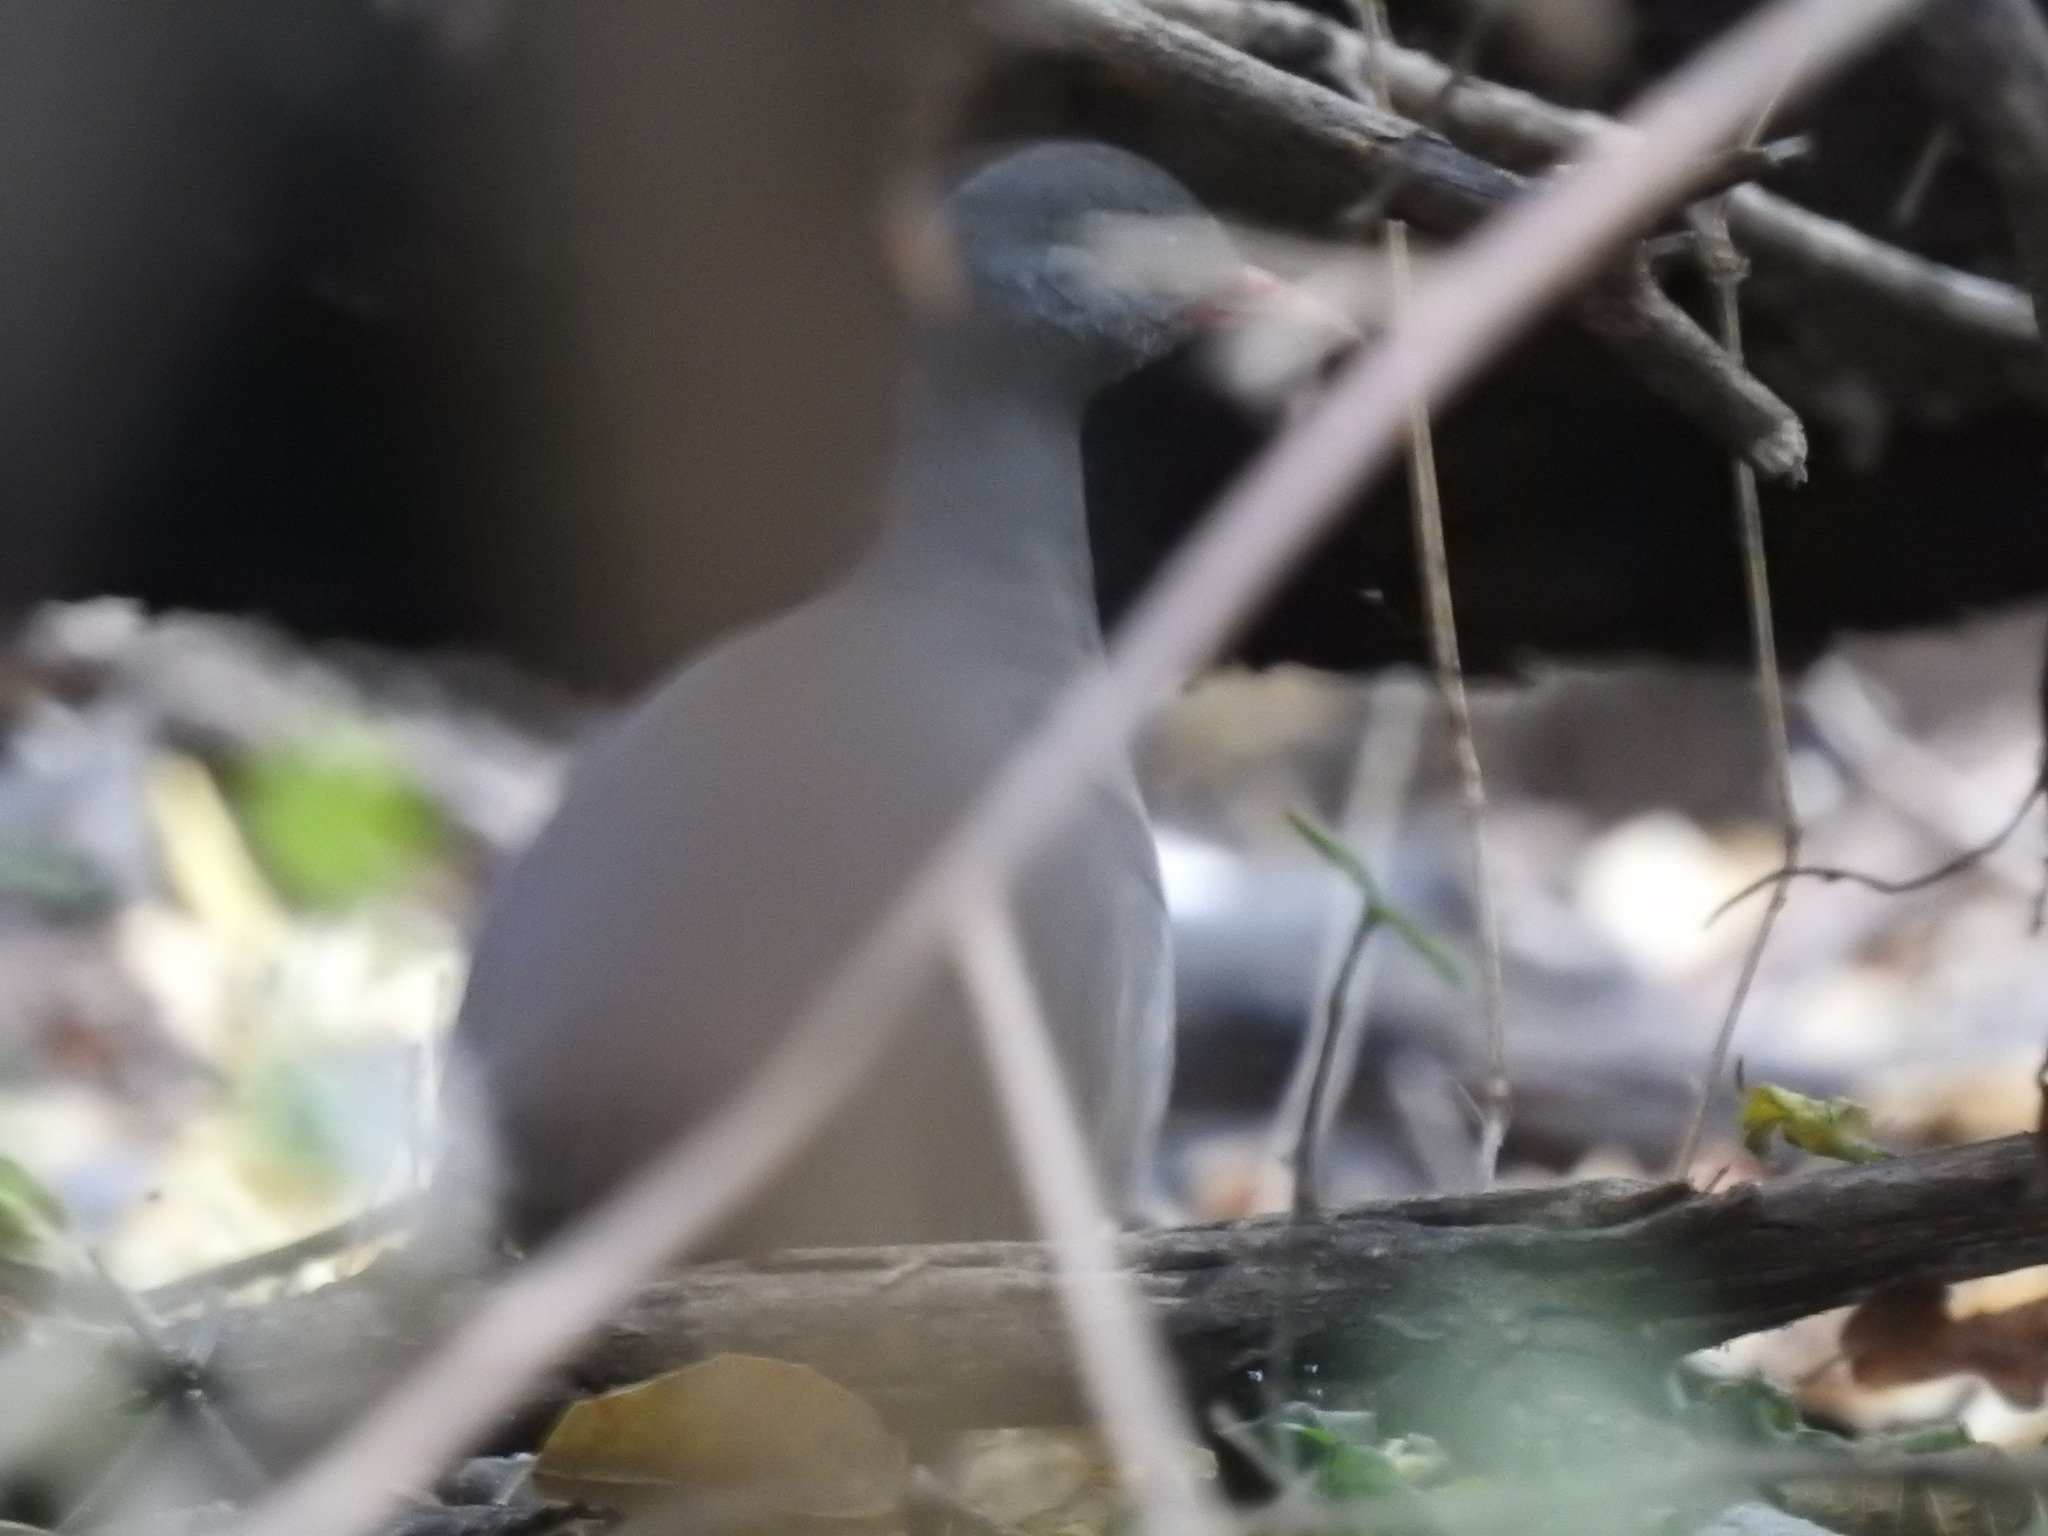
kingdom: Animalia
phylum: Chordata
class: Aves
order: Tinamiformes
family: Tinamidae
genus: Crypturellus
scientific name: Crypturellus tataupa
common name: Tataupa tinamou
